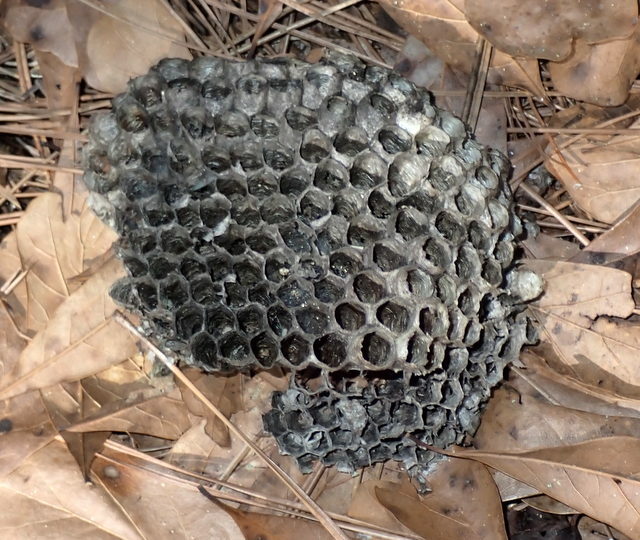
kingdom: Animalia
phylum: Arthropoda
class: Insecta
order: Hymenoptera
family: Vespidae
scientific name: Vespidae
